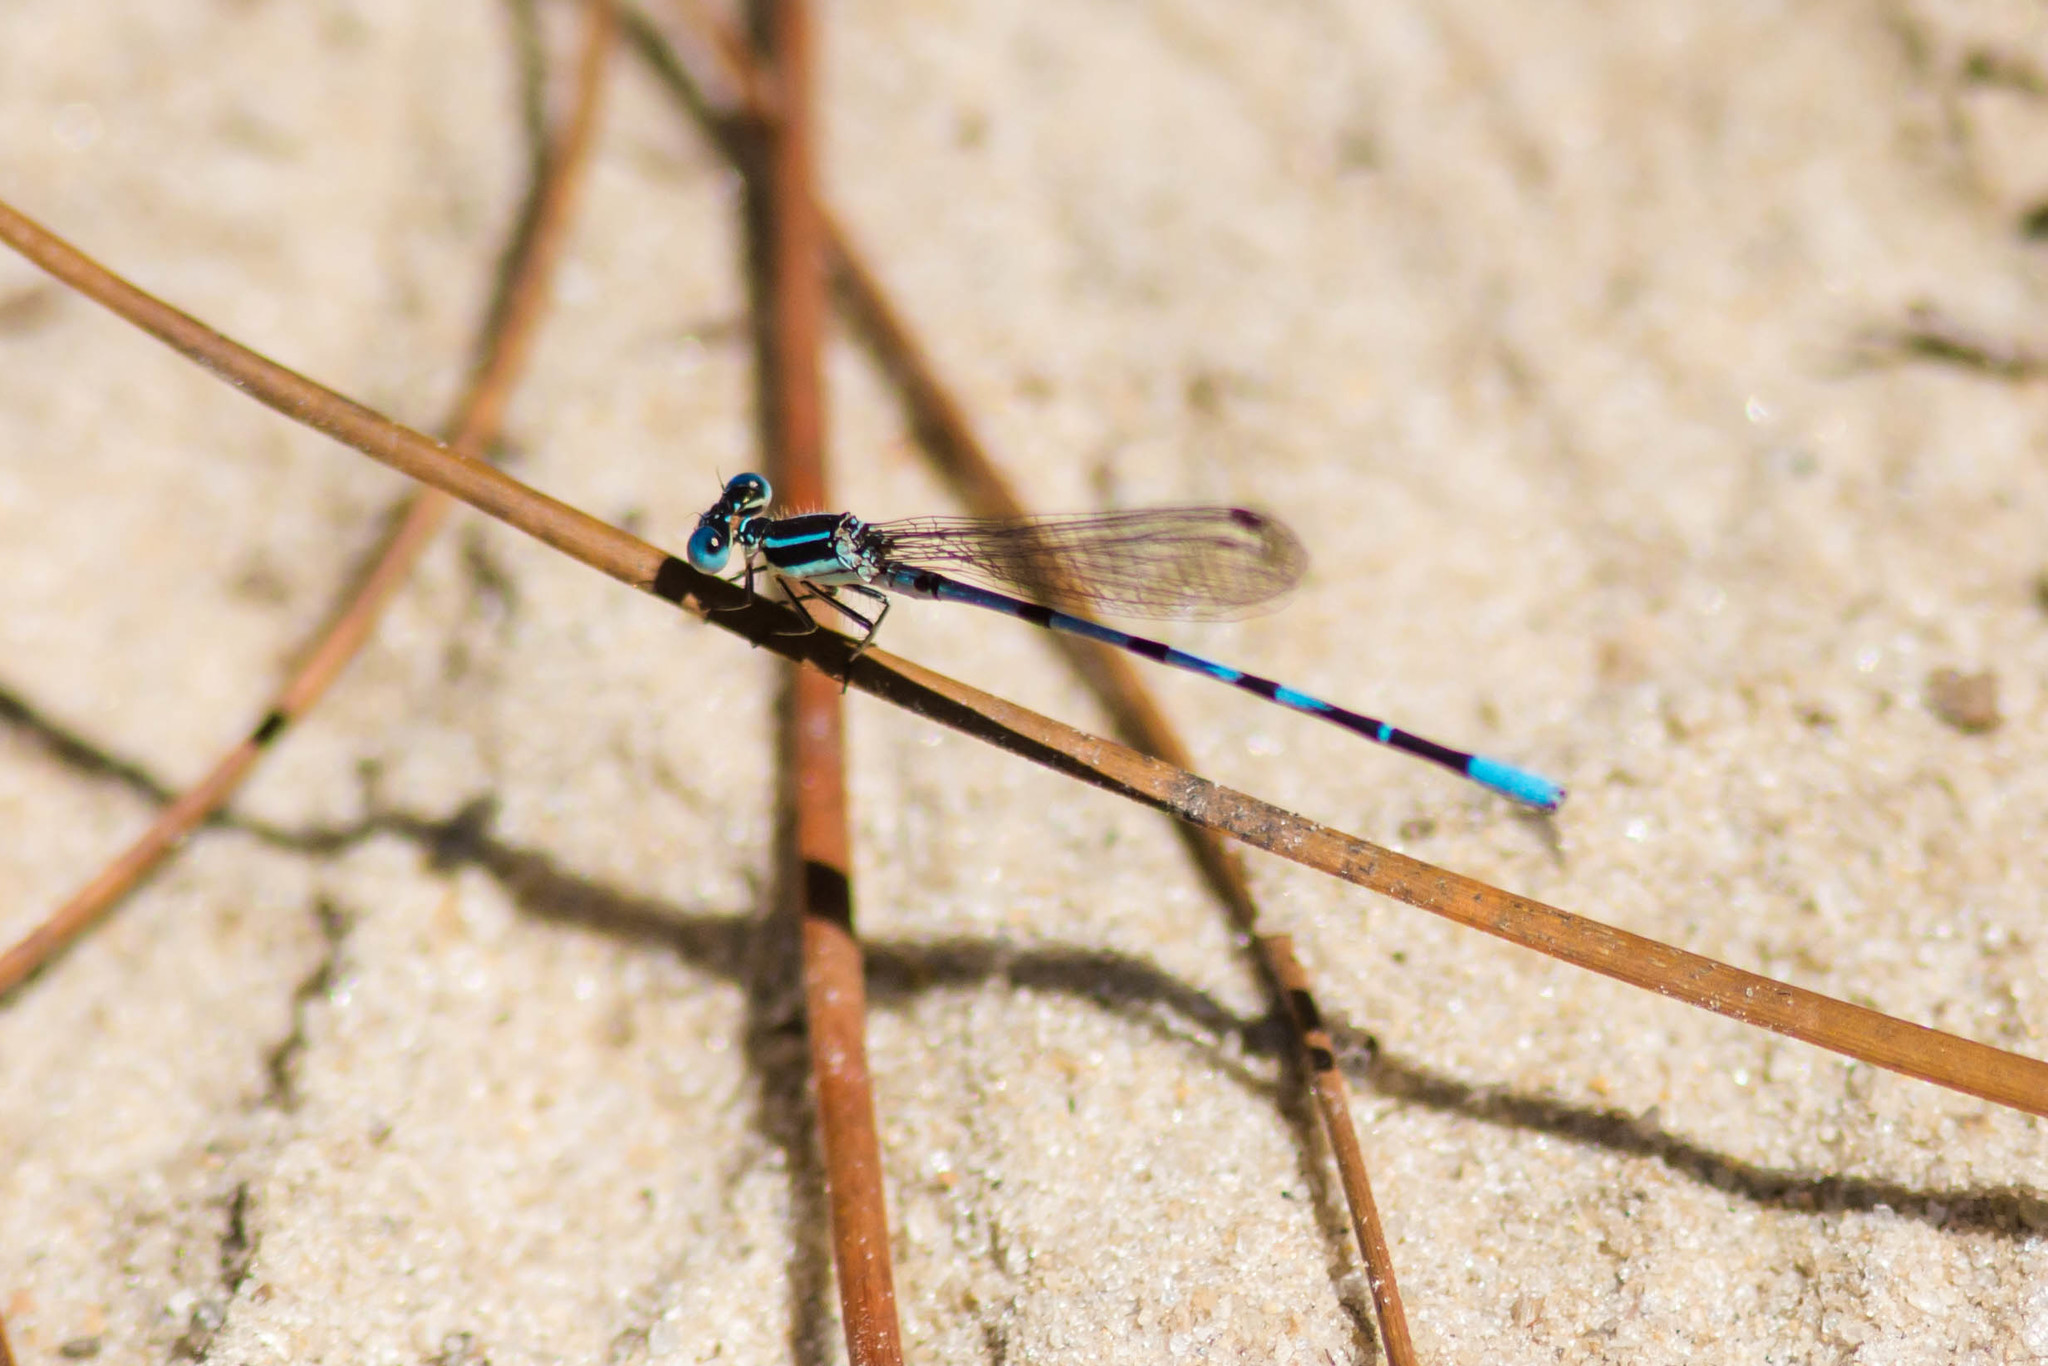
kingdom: Animalia
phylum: Arthropoda
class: Insecta
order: Odonata
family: Coenagrionidae
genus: Argia
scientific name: Argia bipunctulata
